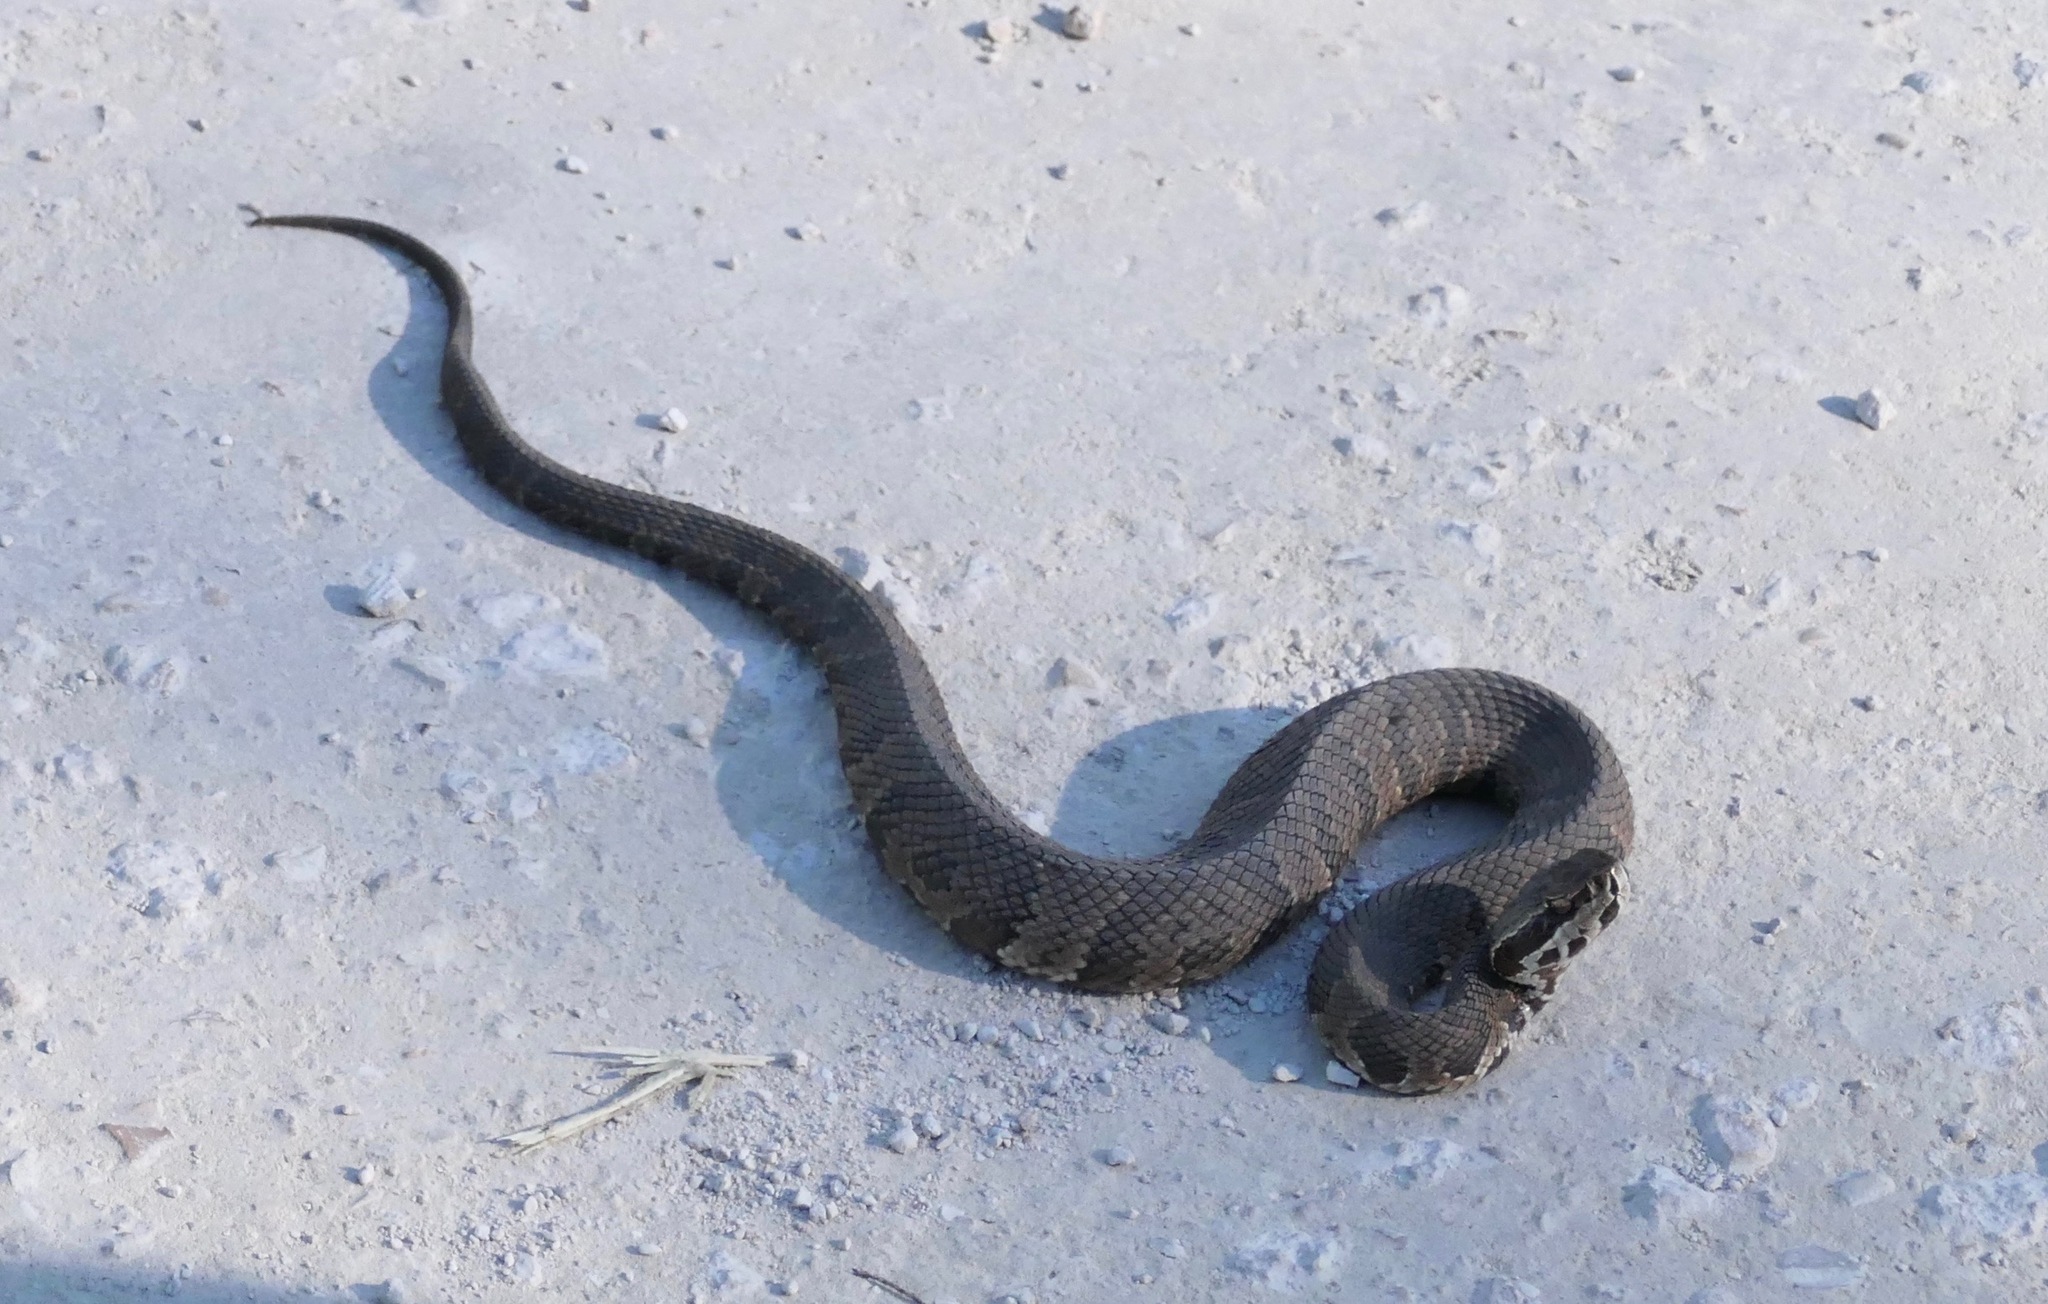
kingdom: Animalia
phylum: Chordata
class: Squamata
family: Viperidae
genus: Agkistrodon
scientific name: Agkistrodon conanti
